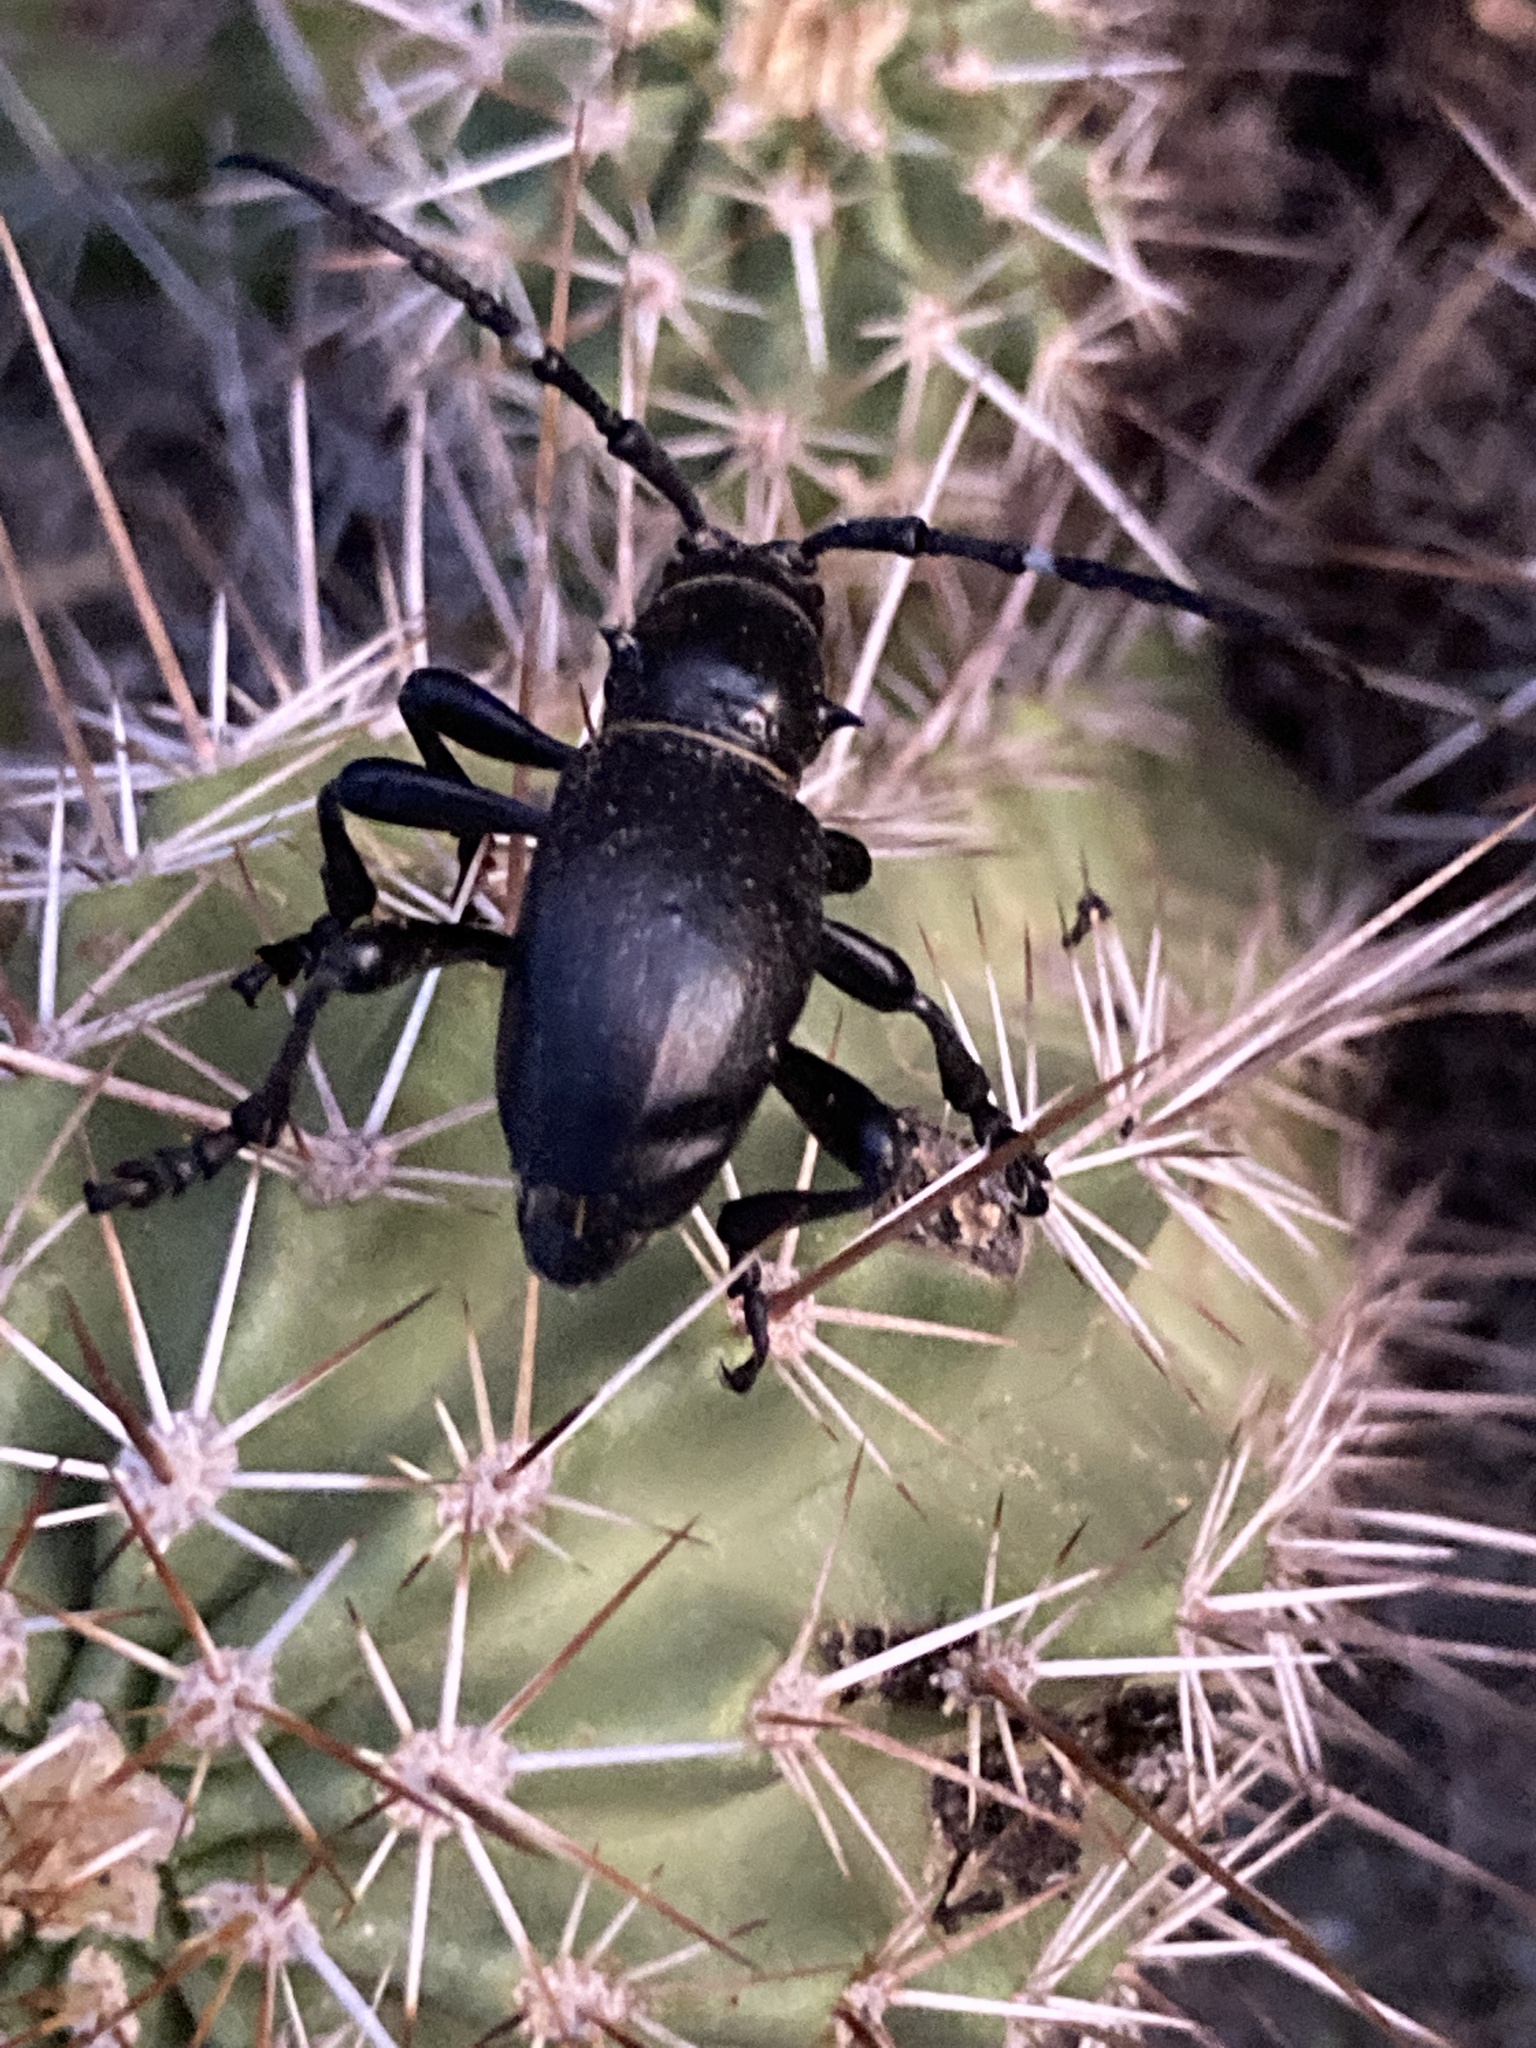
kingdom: Animalia
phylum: Arthropoda
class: Insecta
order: Coleoptera
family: Cerambycidae
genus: Moneilema
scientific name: Moneilema gigas
